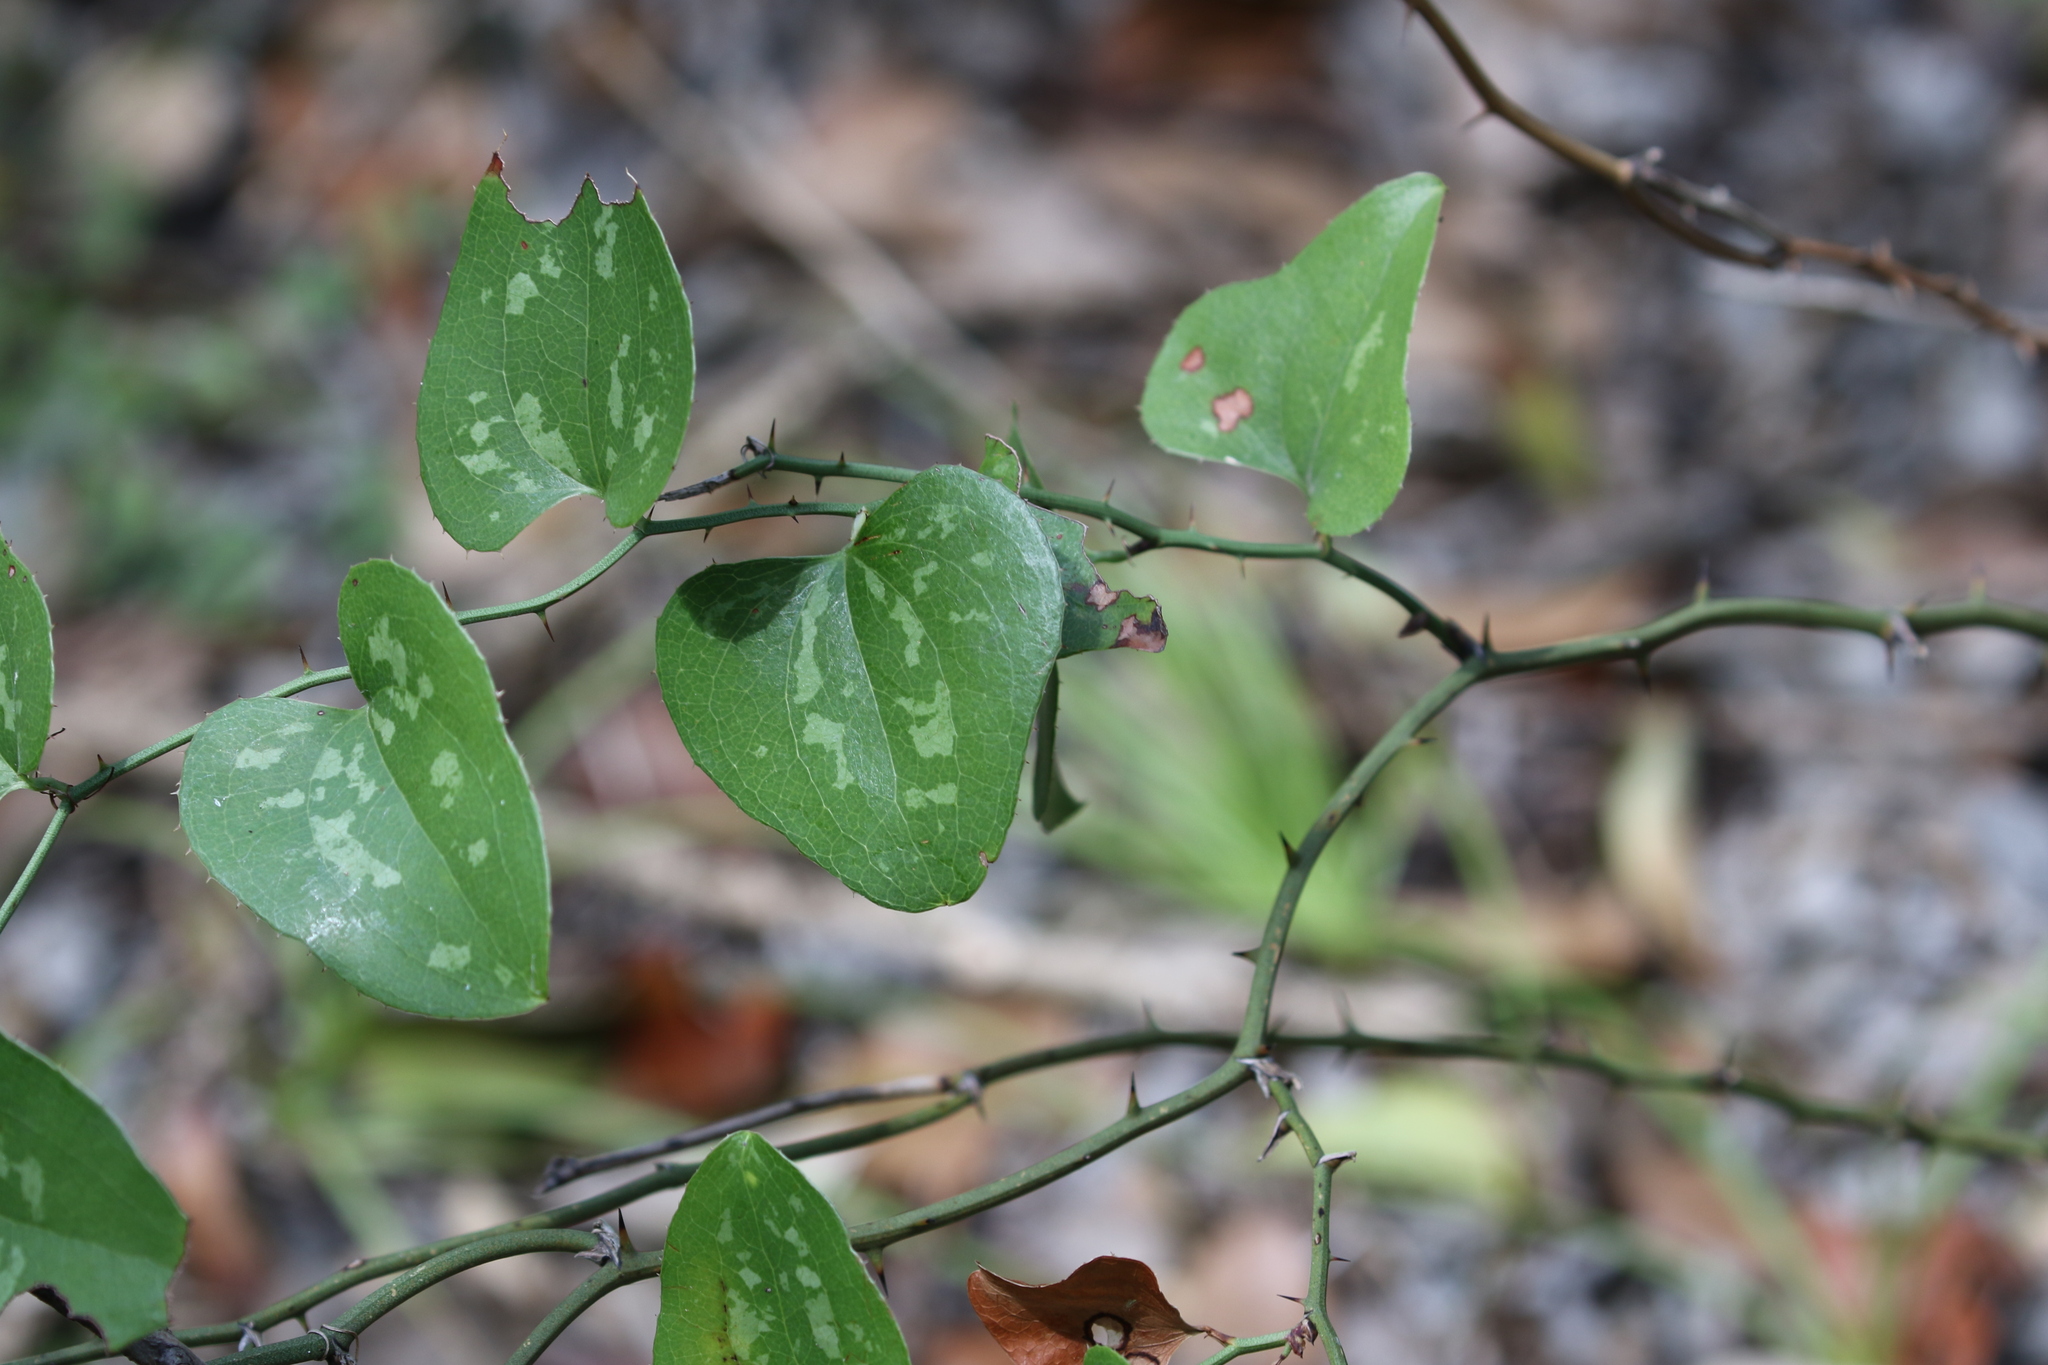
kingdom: Plantae
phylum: Tracheophyta
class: Liliopsida
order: Liliales
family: Smilacaceae
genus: Smilax
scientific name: Smilax bona-nox
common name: Catbrier
